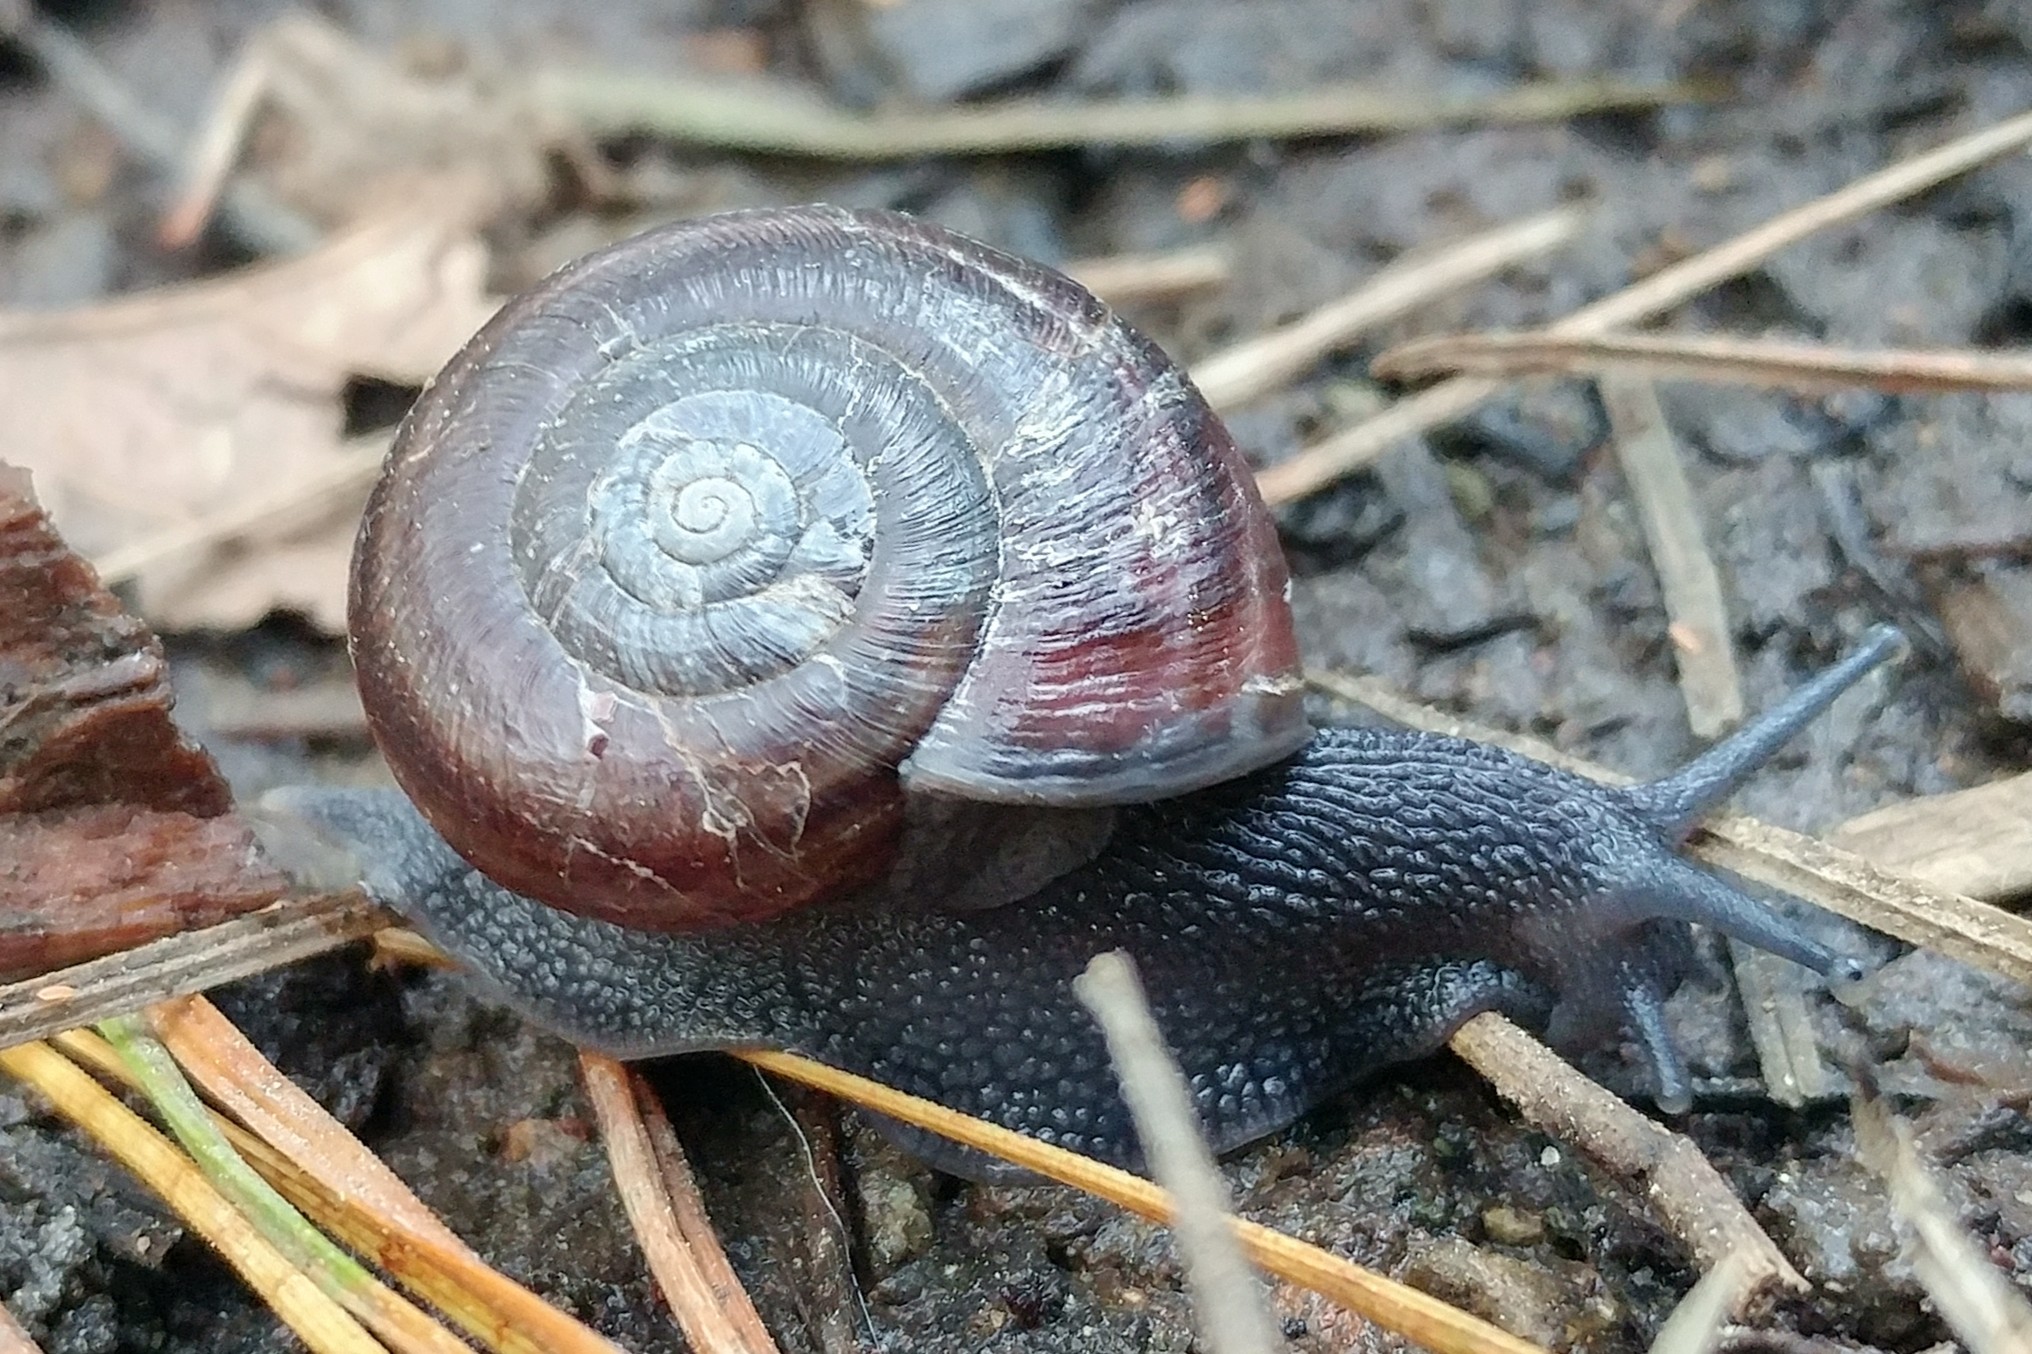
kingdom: Animalia
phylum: Mollusca
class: Gastropoda
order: Stylommatophora
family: Xanthonychidae
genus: Helminthoglypta
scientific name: Helminthoglypta sequoicola
